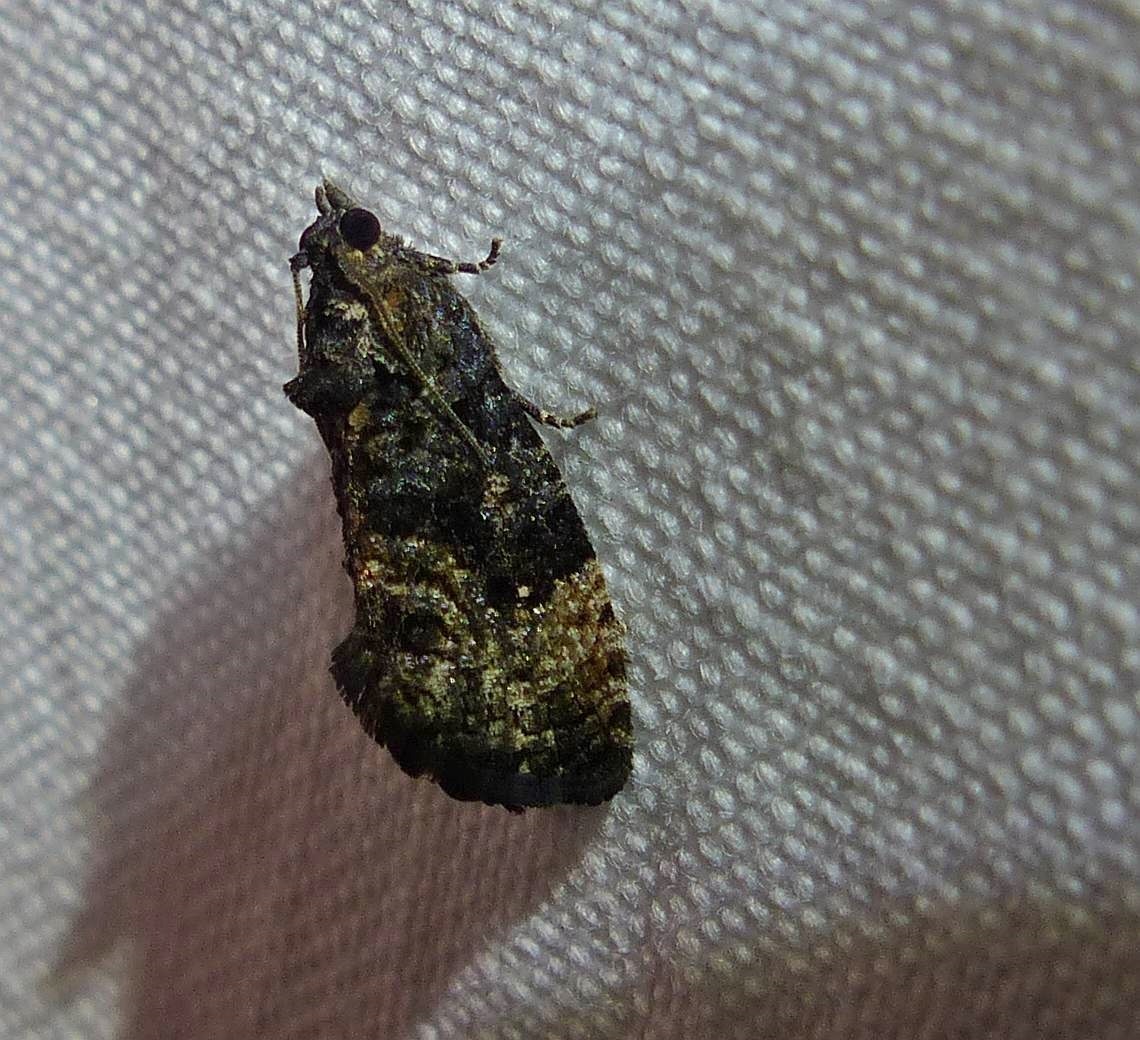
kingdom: Animalia
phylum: Arthropoda
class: Insecta
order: Lepidoptera
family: Tortricidae
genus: Gymnandrosoma
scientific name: Gymnandrosoma punctidiscanum
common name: Dotted ecdytolopha moth
